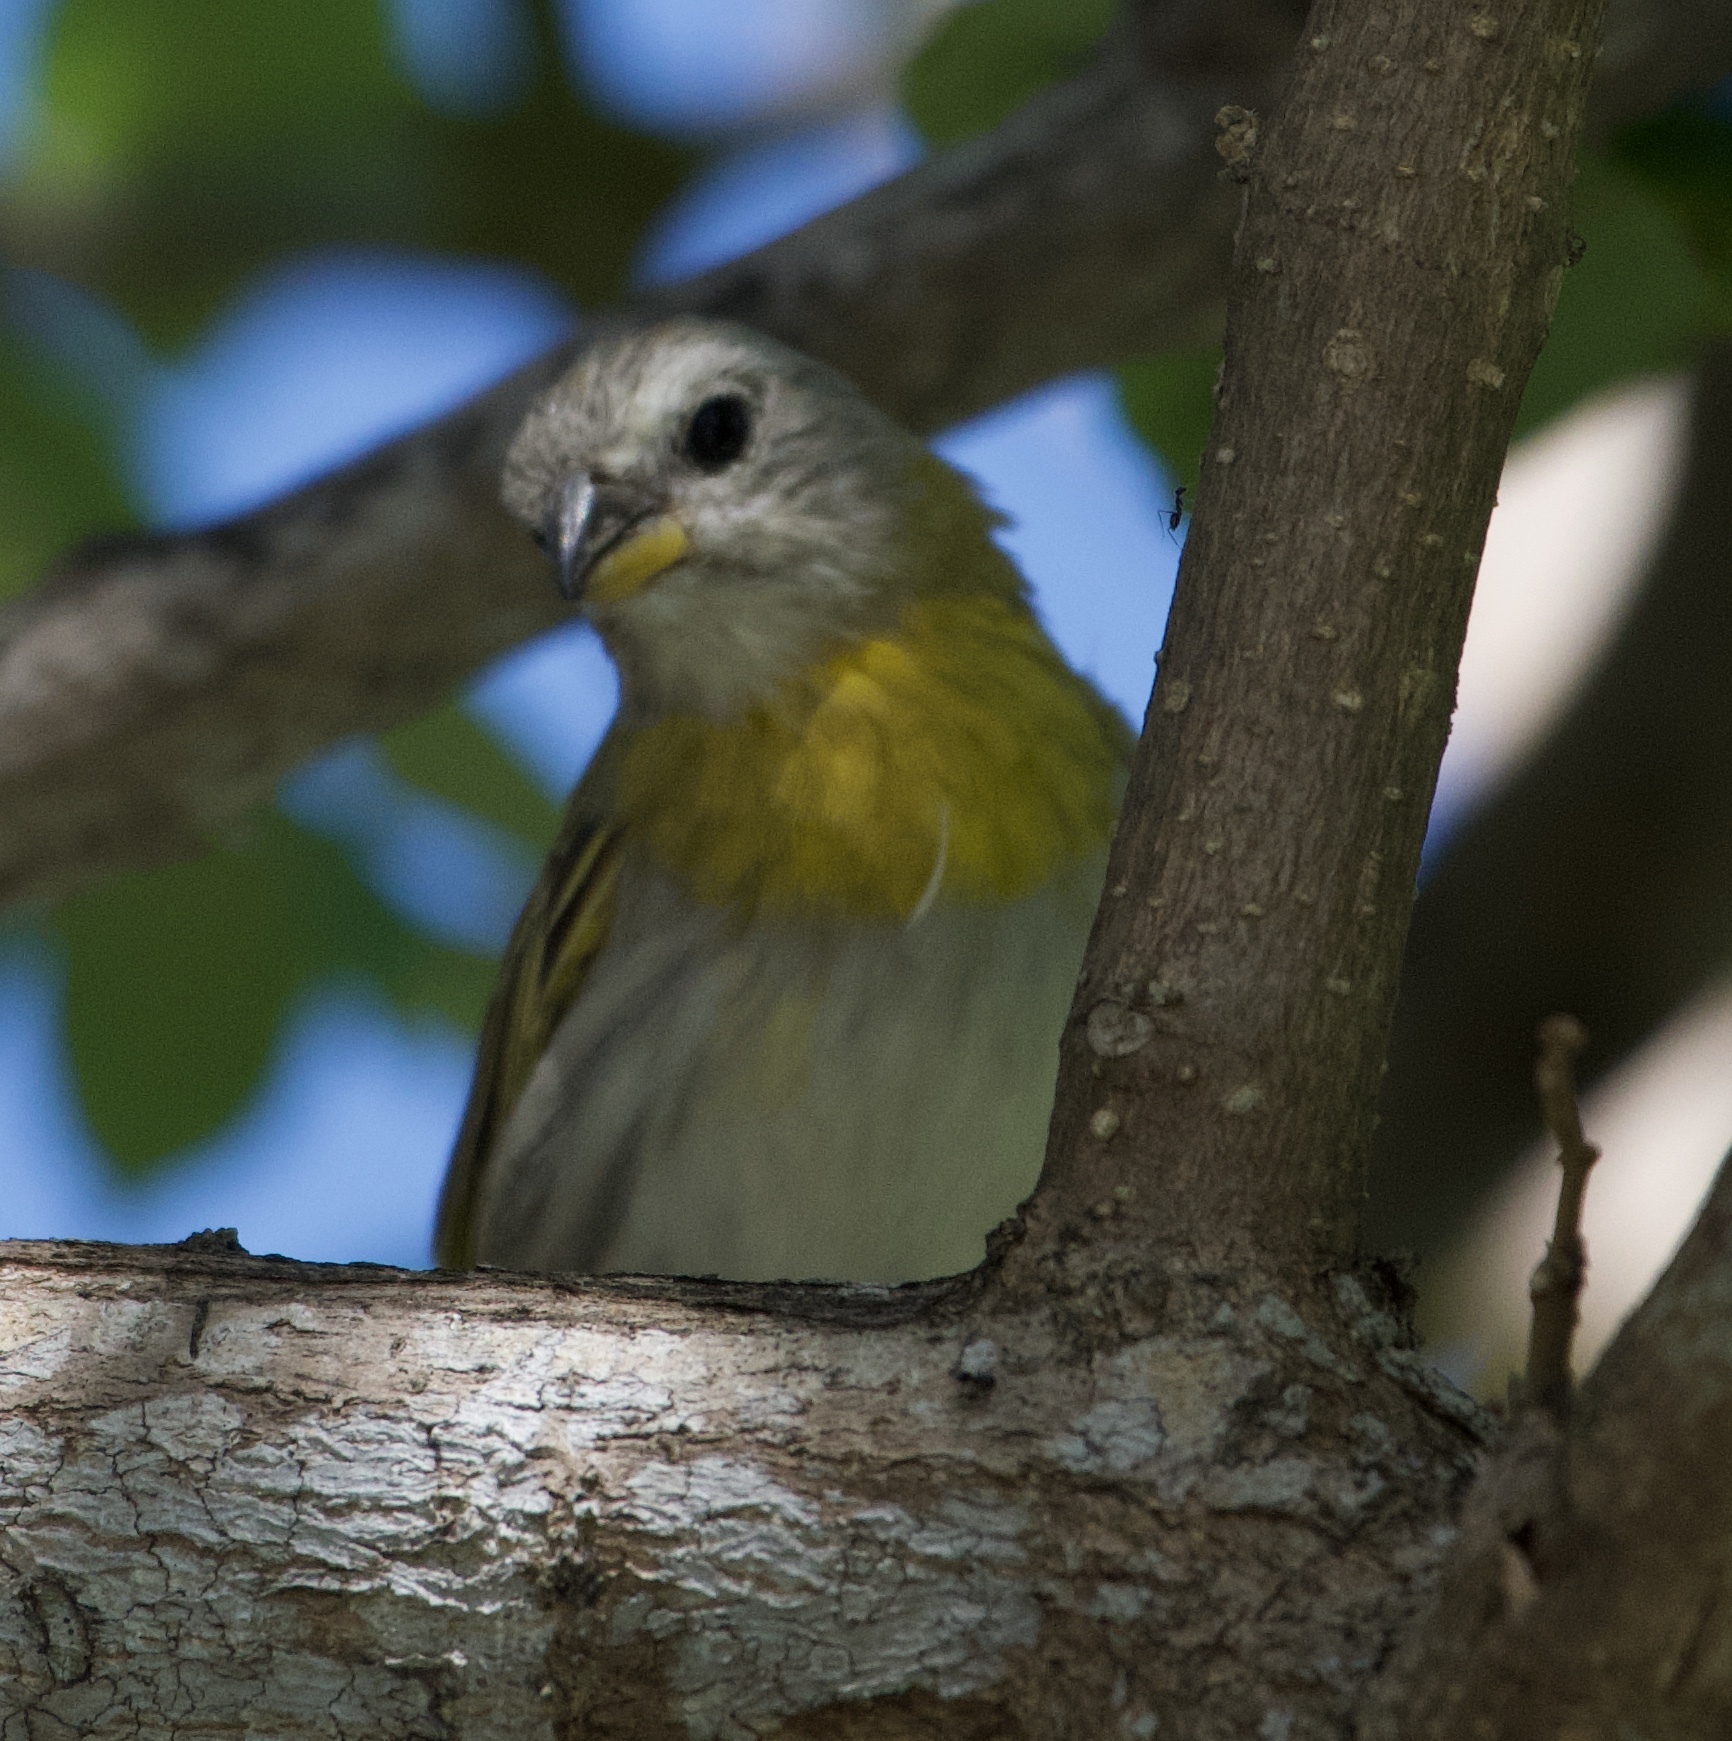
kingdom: Animalia
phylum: Chordata
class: Aves
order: Passeriformes
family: Thraupidae
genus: Sicalis
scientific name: Sicalis flaveola
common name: Saffron finch
